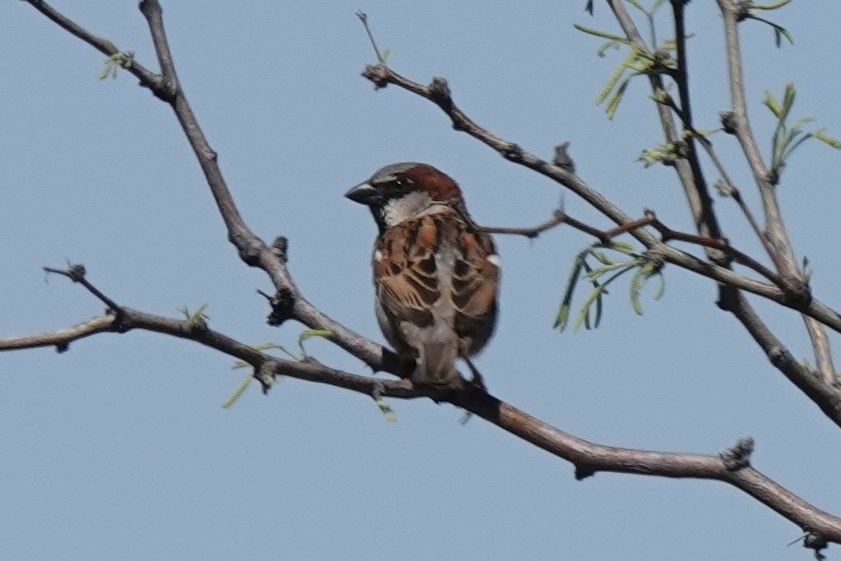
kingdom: Animalia
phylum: Chordata
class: Aves
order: Passeriformes
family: Passeridae
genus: Passer
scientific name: Passer domesticus
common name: House sparrow
